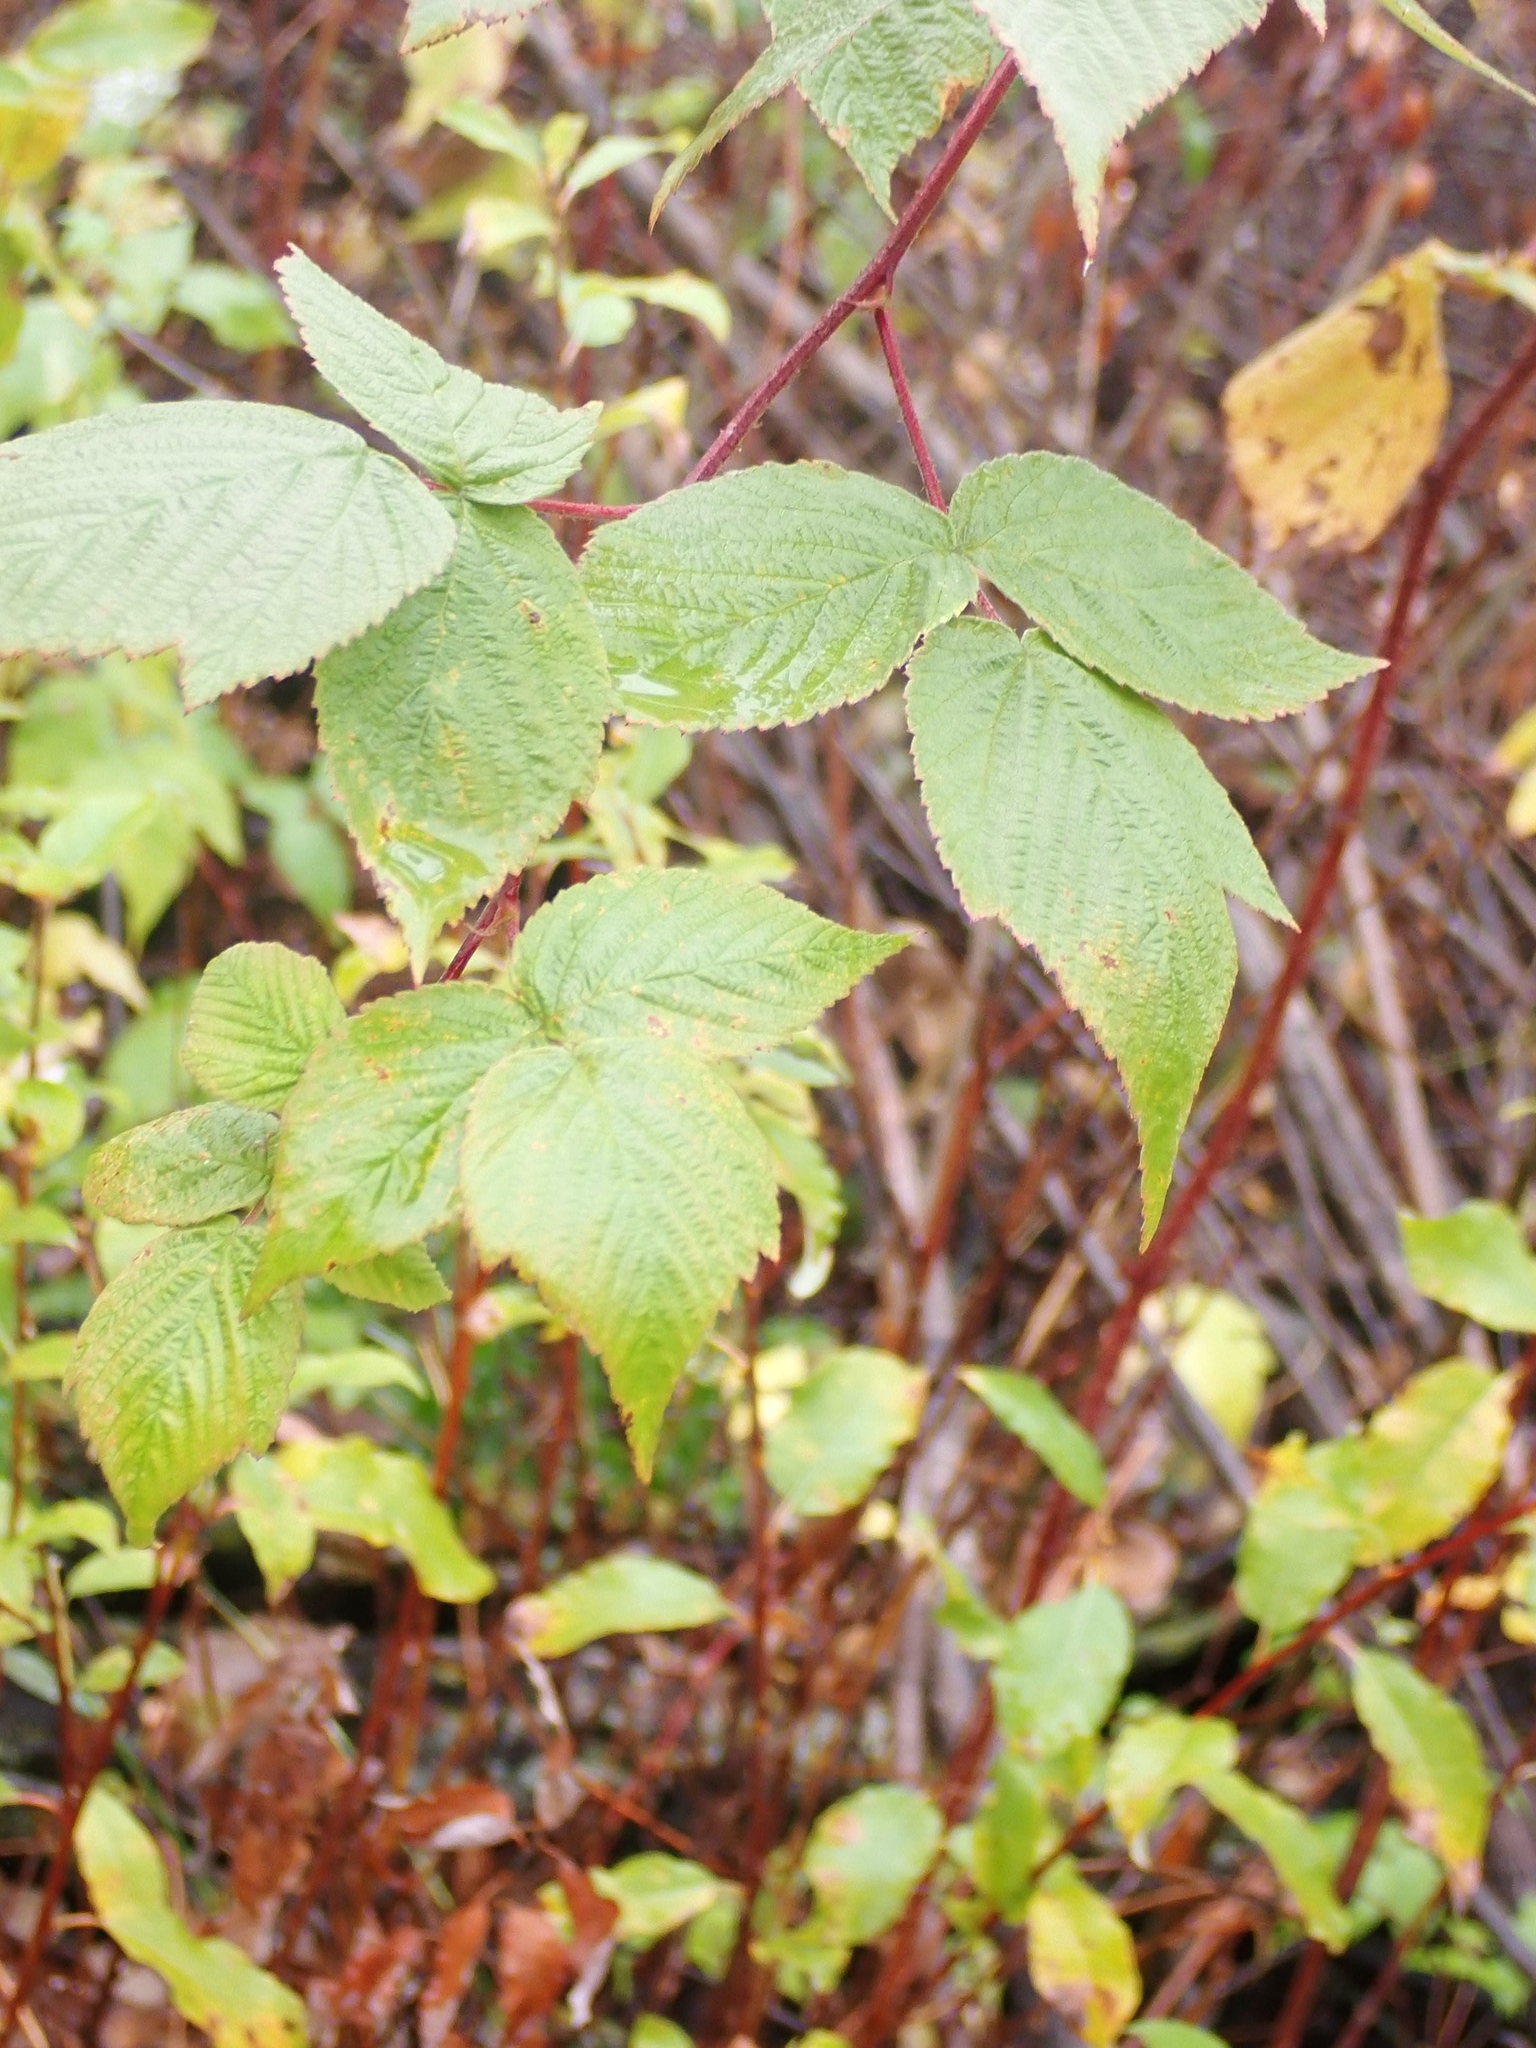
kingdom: Plantae
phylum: Tracheophyta
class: Magnoliopsida
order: Rosales
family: Rosaceae
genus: Rubus
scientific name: Rubus idaeus
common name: Raspberry
